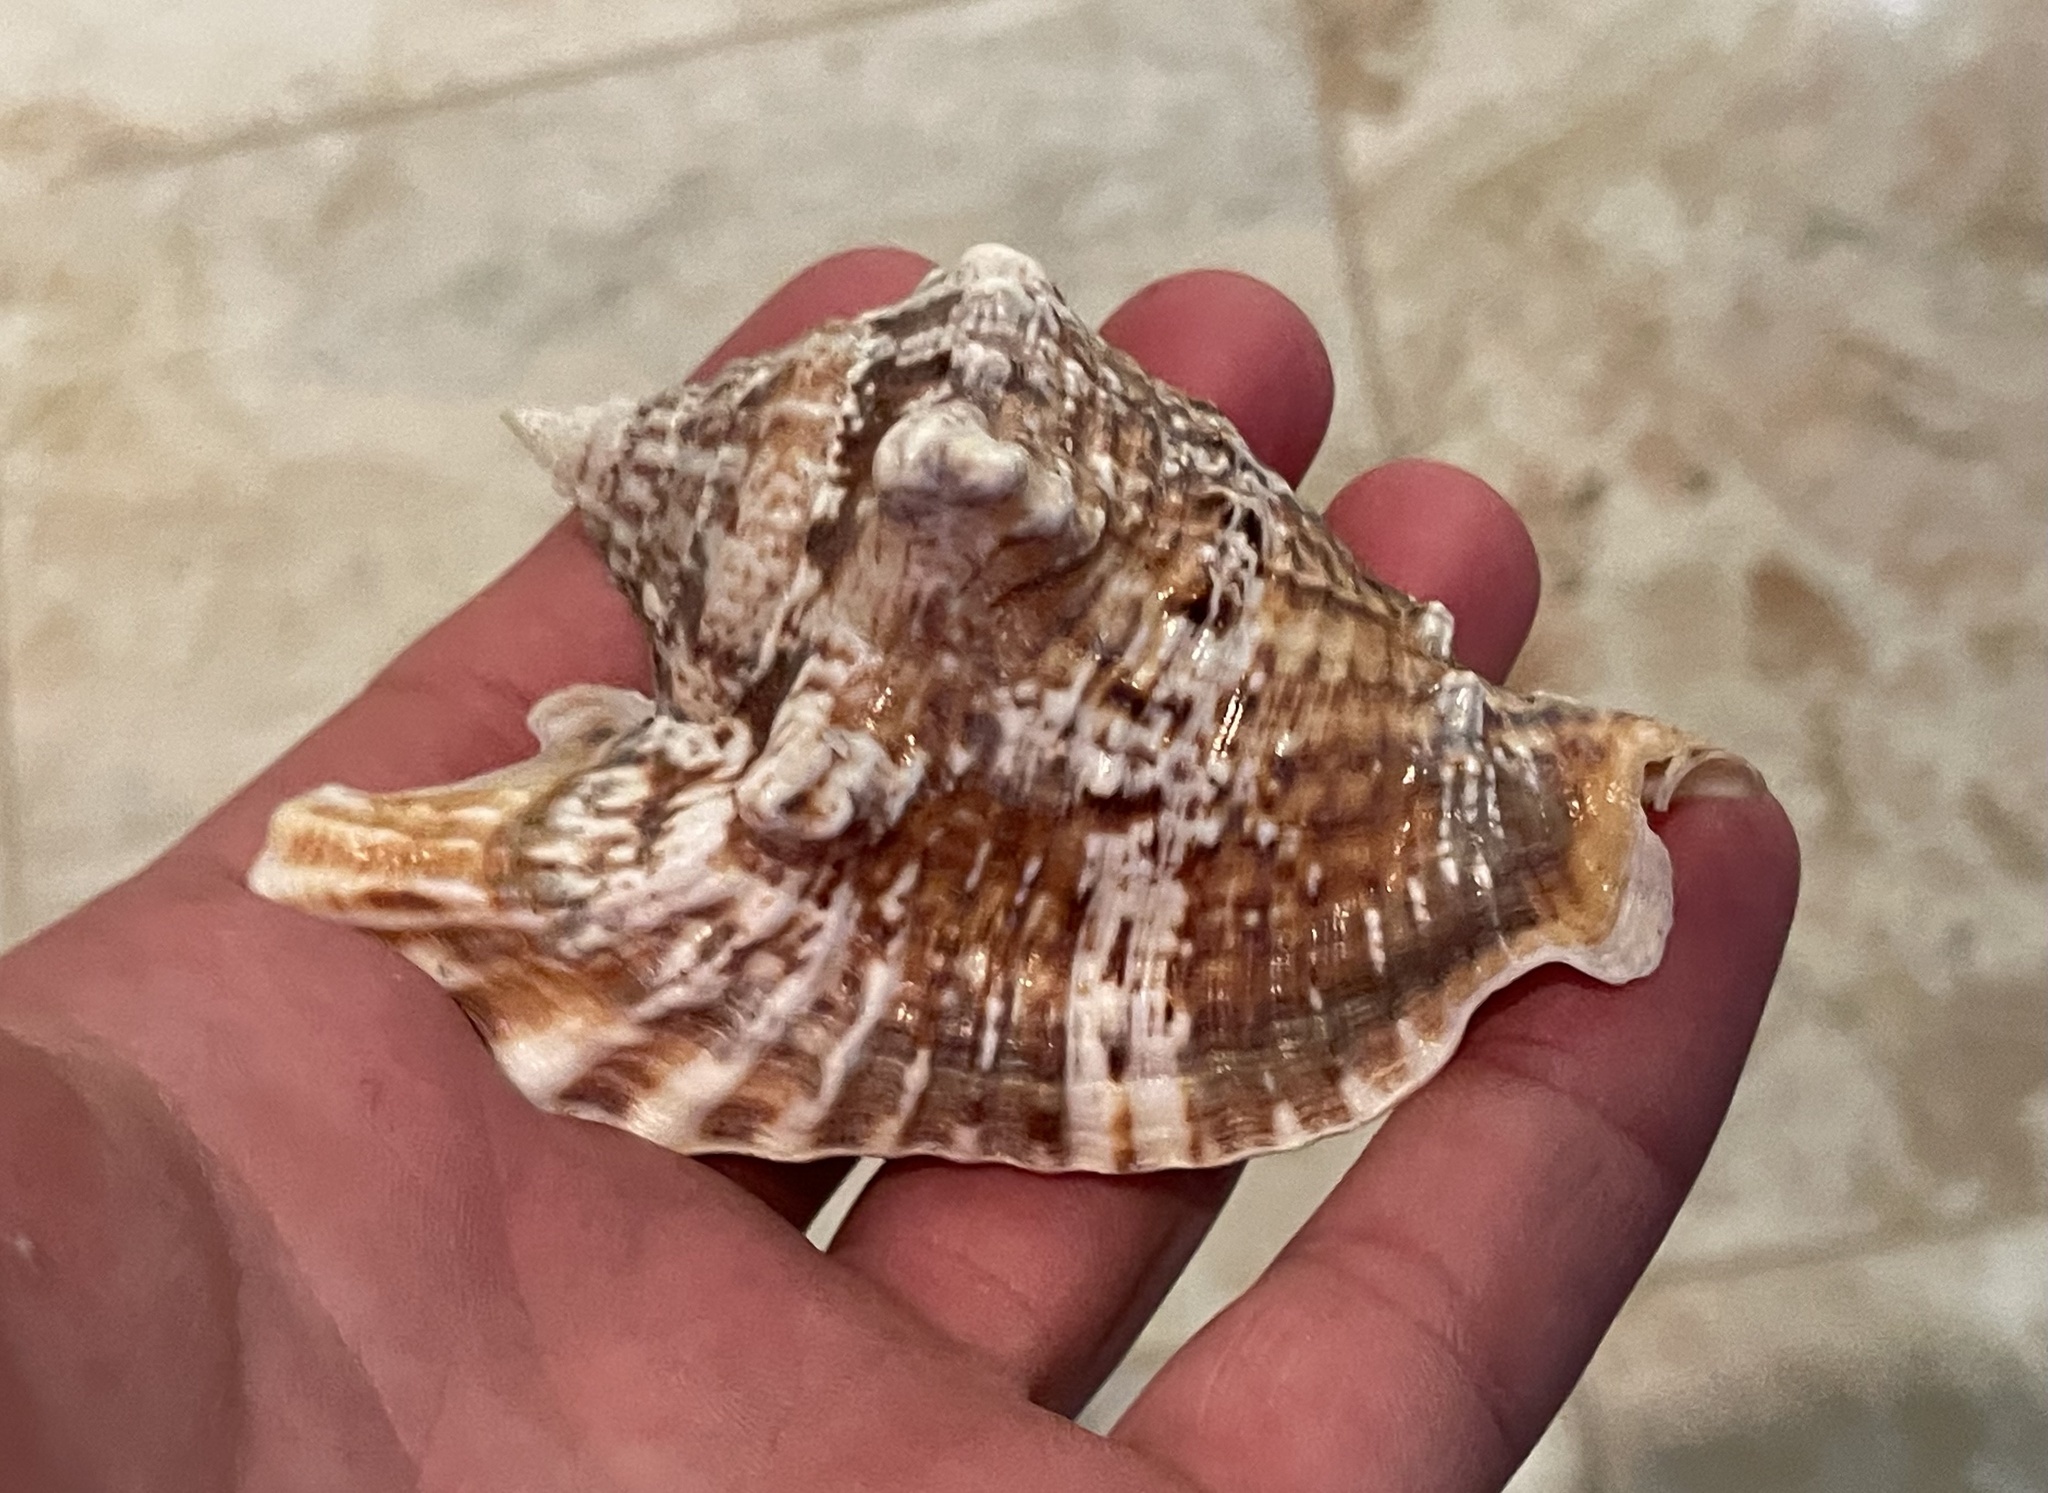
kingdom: Animalia
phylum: Mollusca
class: Gastropoda
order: Littorinimorpha
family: Strombidae
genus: Lobatus
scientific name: Lobatus raninus
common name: Hawk-wing conch
